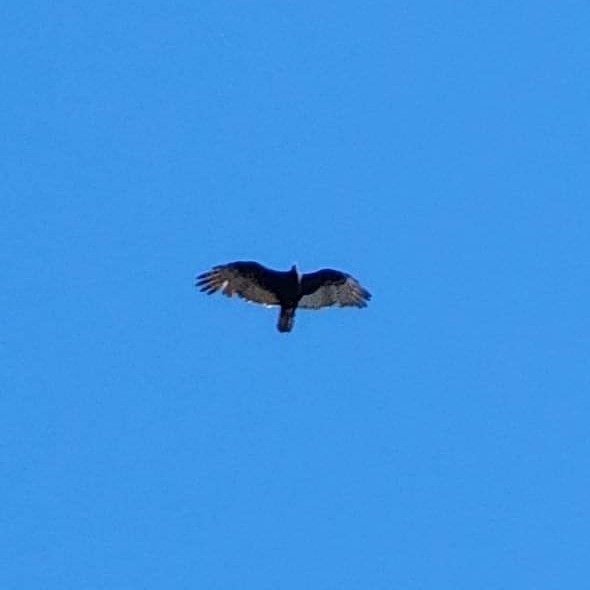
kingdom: Animalia
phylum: Chordata
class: Aves
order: Accipitriformes
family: Cathartidae
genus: Cathartes
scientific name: Cathartes aura
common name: Turkey vulture
